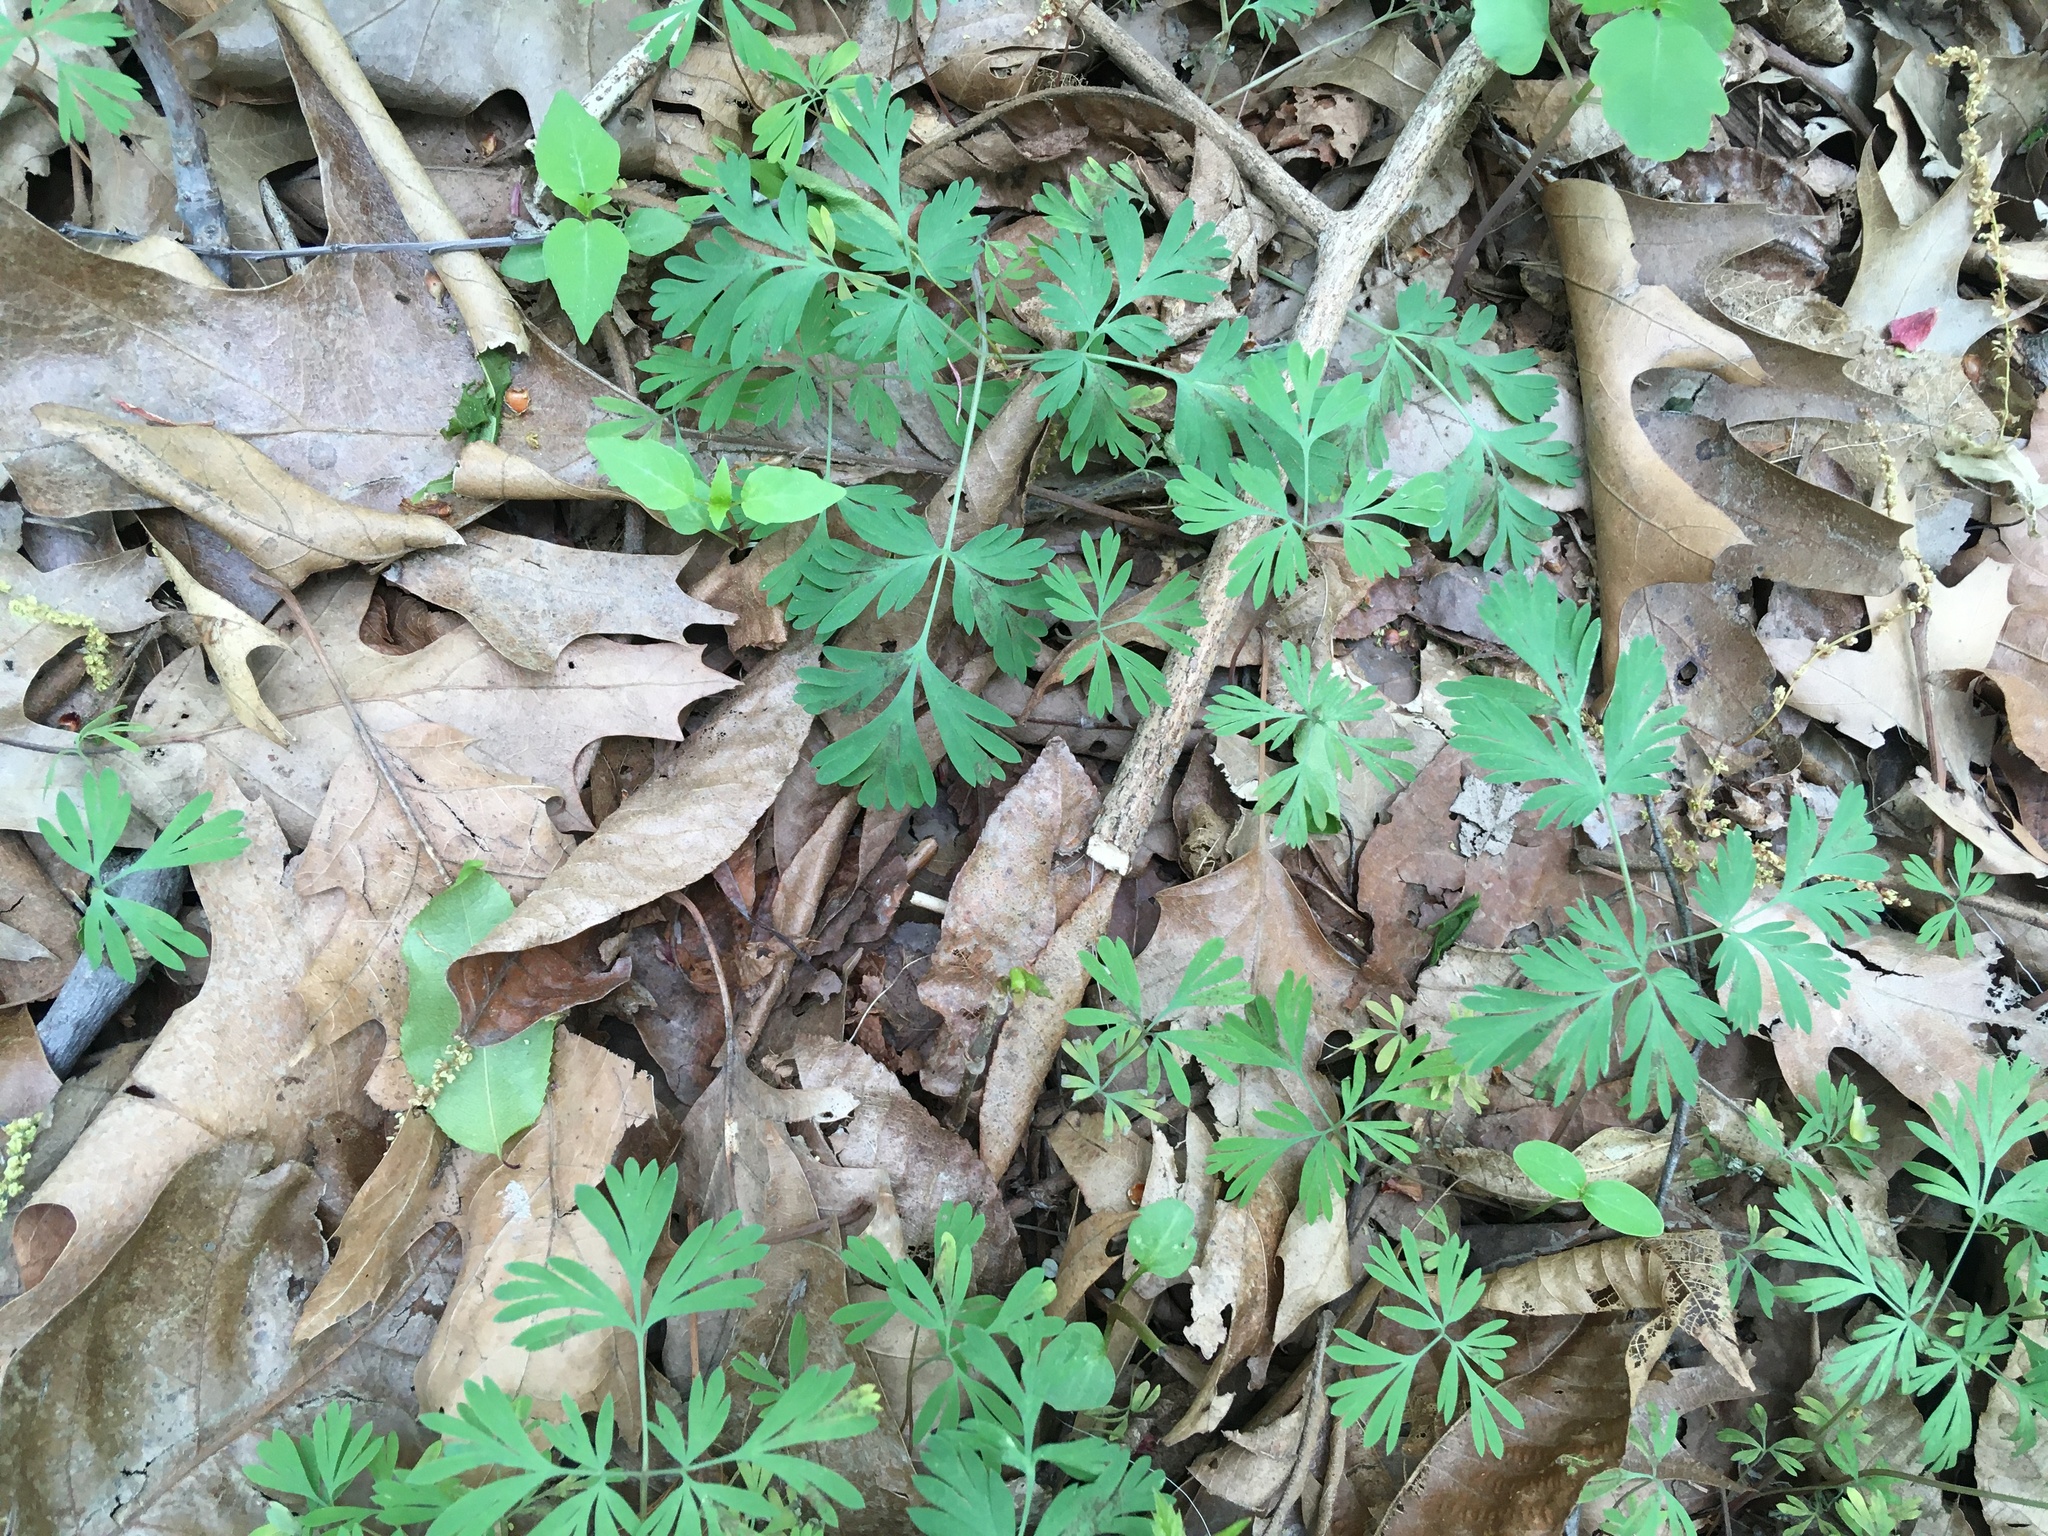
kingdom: Plantae
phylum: Tracheophyta
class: Magnoliopsida
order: Ranunculales
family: Papaveraceae
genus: Dicentra
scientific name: Dicentra cucullaria
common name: Dutchman's breeches
